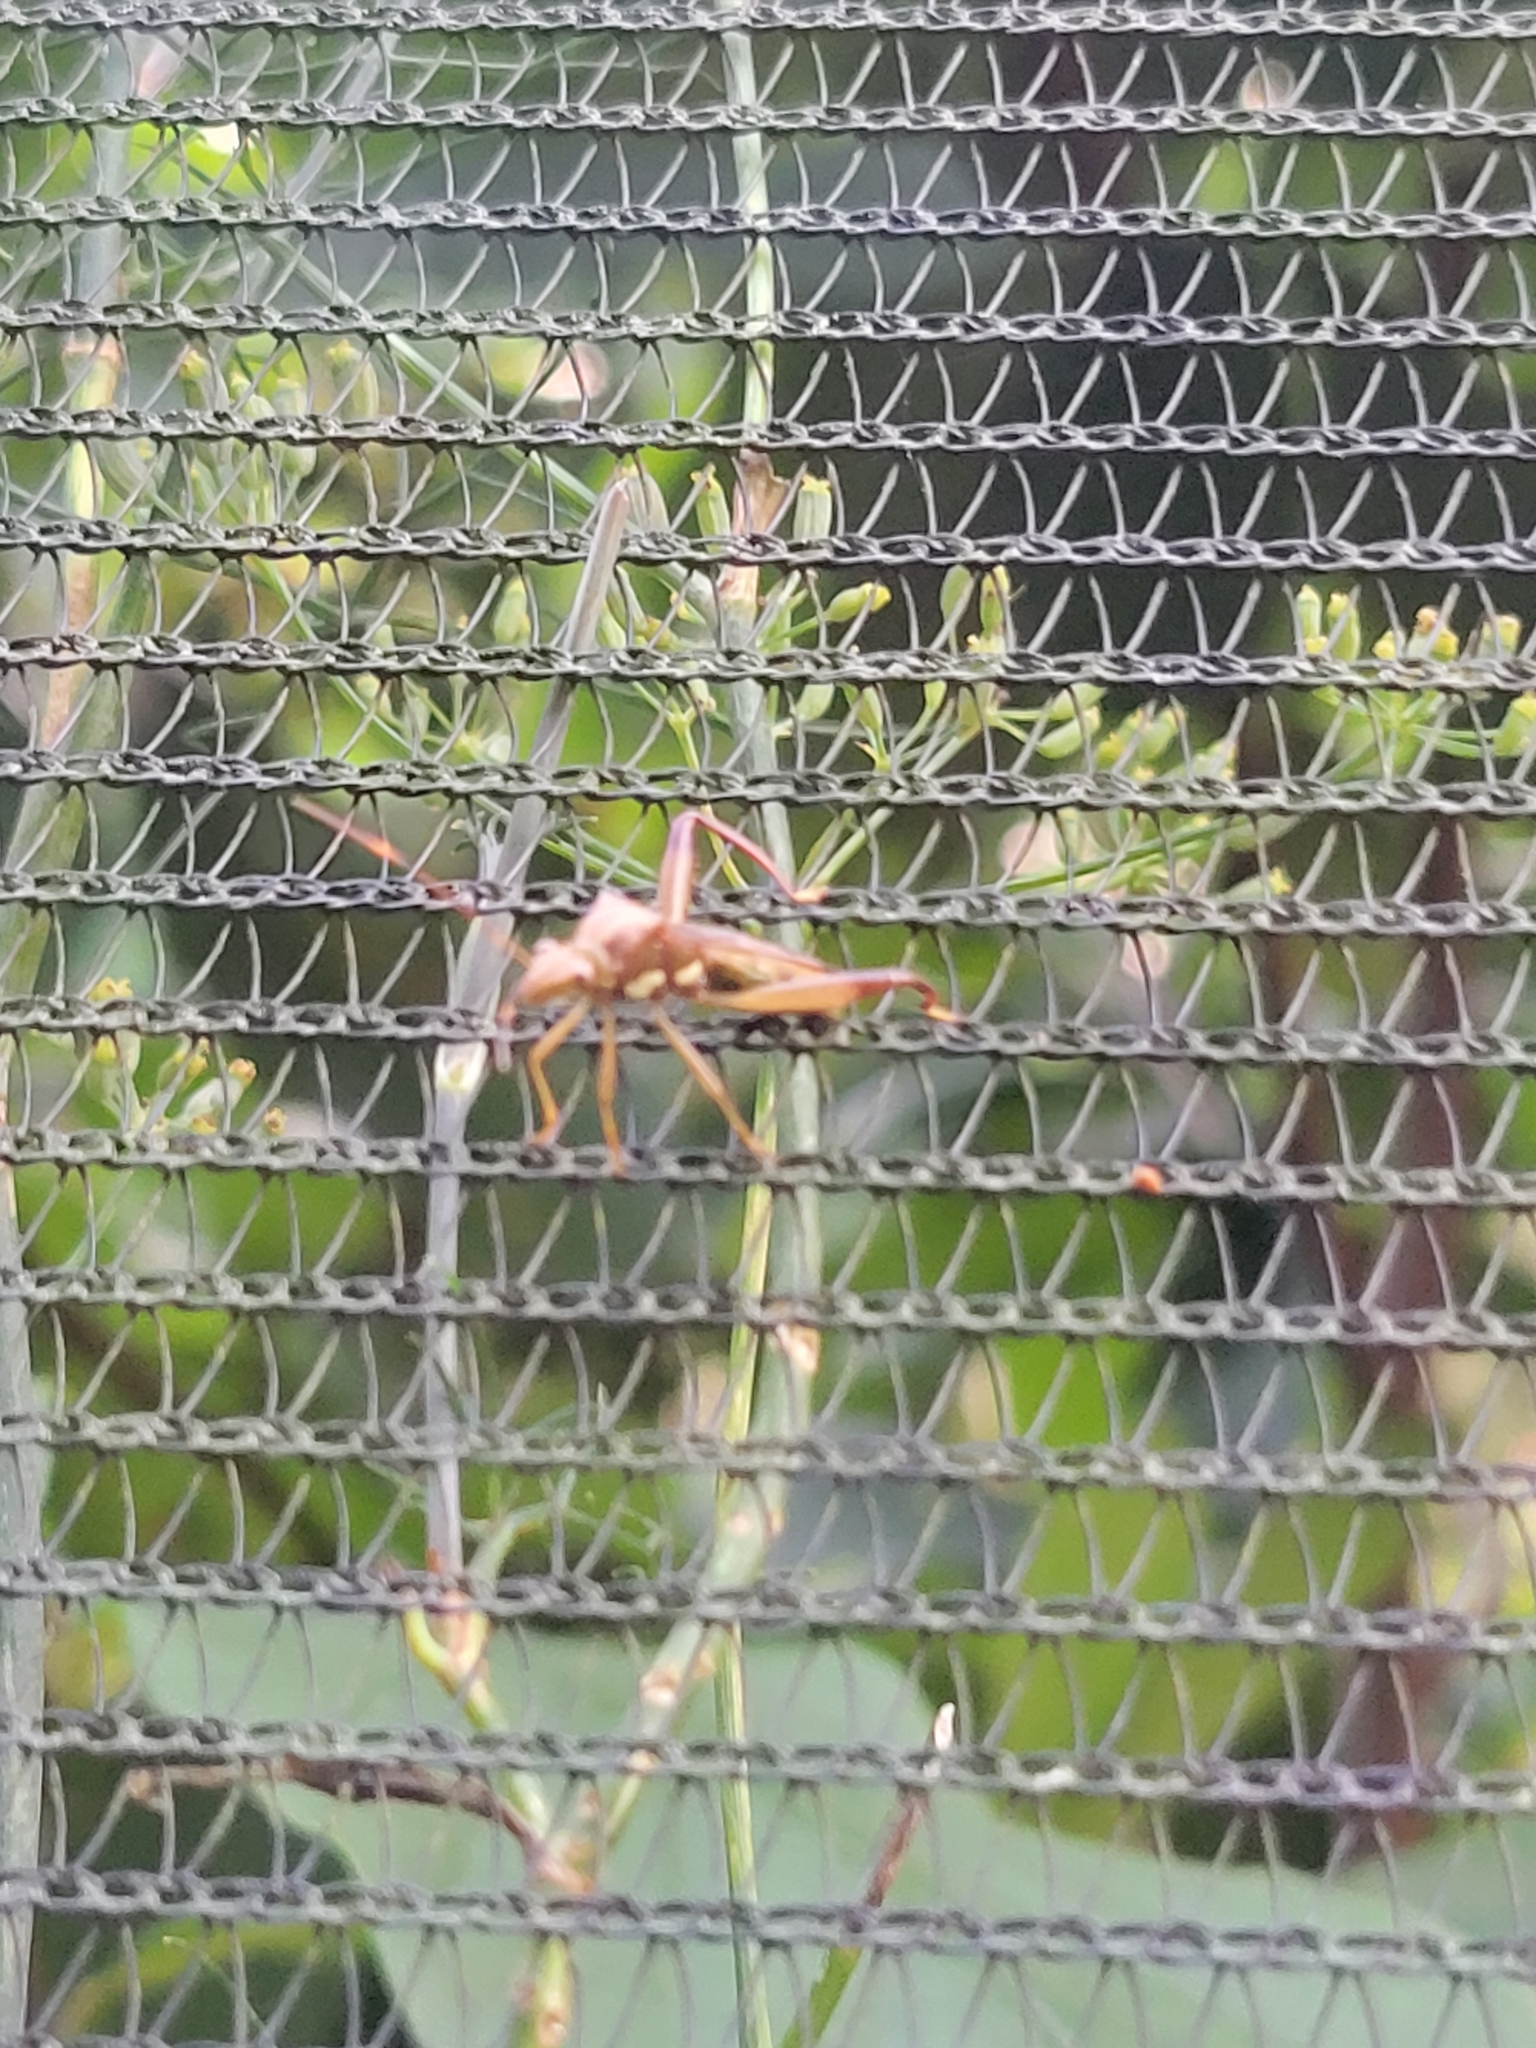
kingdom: Animalia
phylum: Arthropoda
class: Insecta
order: Hemiptera
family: Alydidae
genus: Hyalymenus
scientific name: Hyalymenus tarsatus
